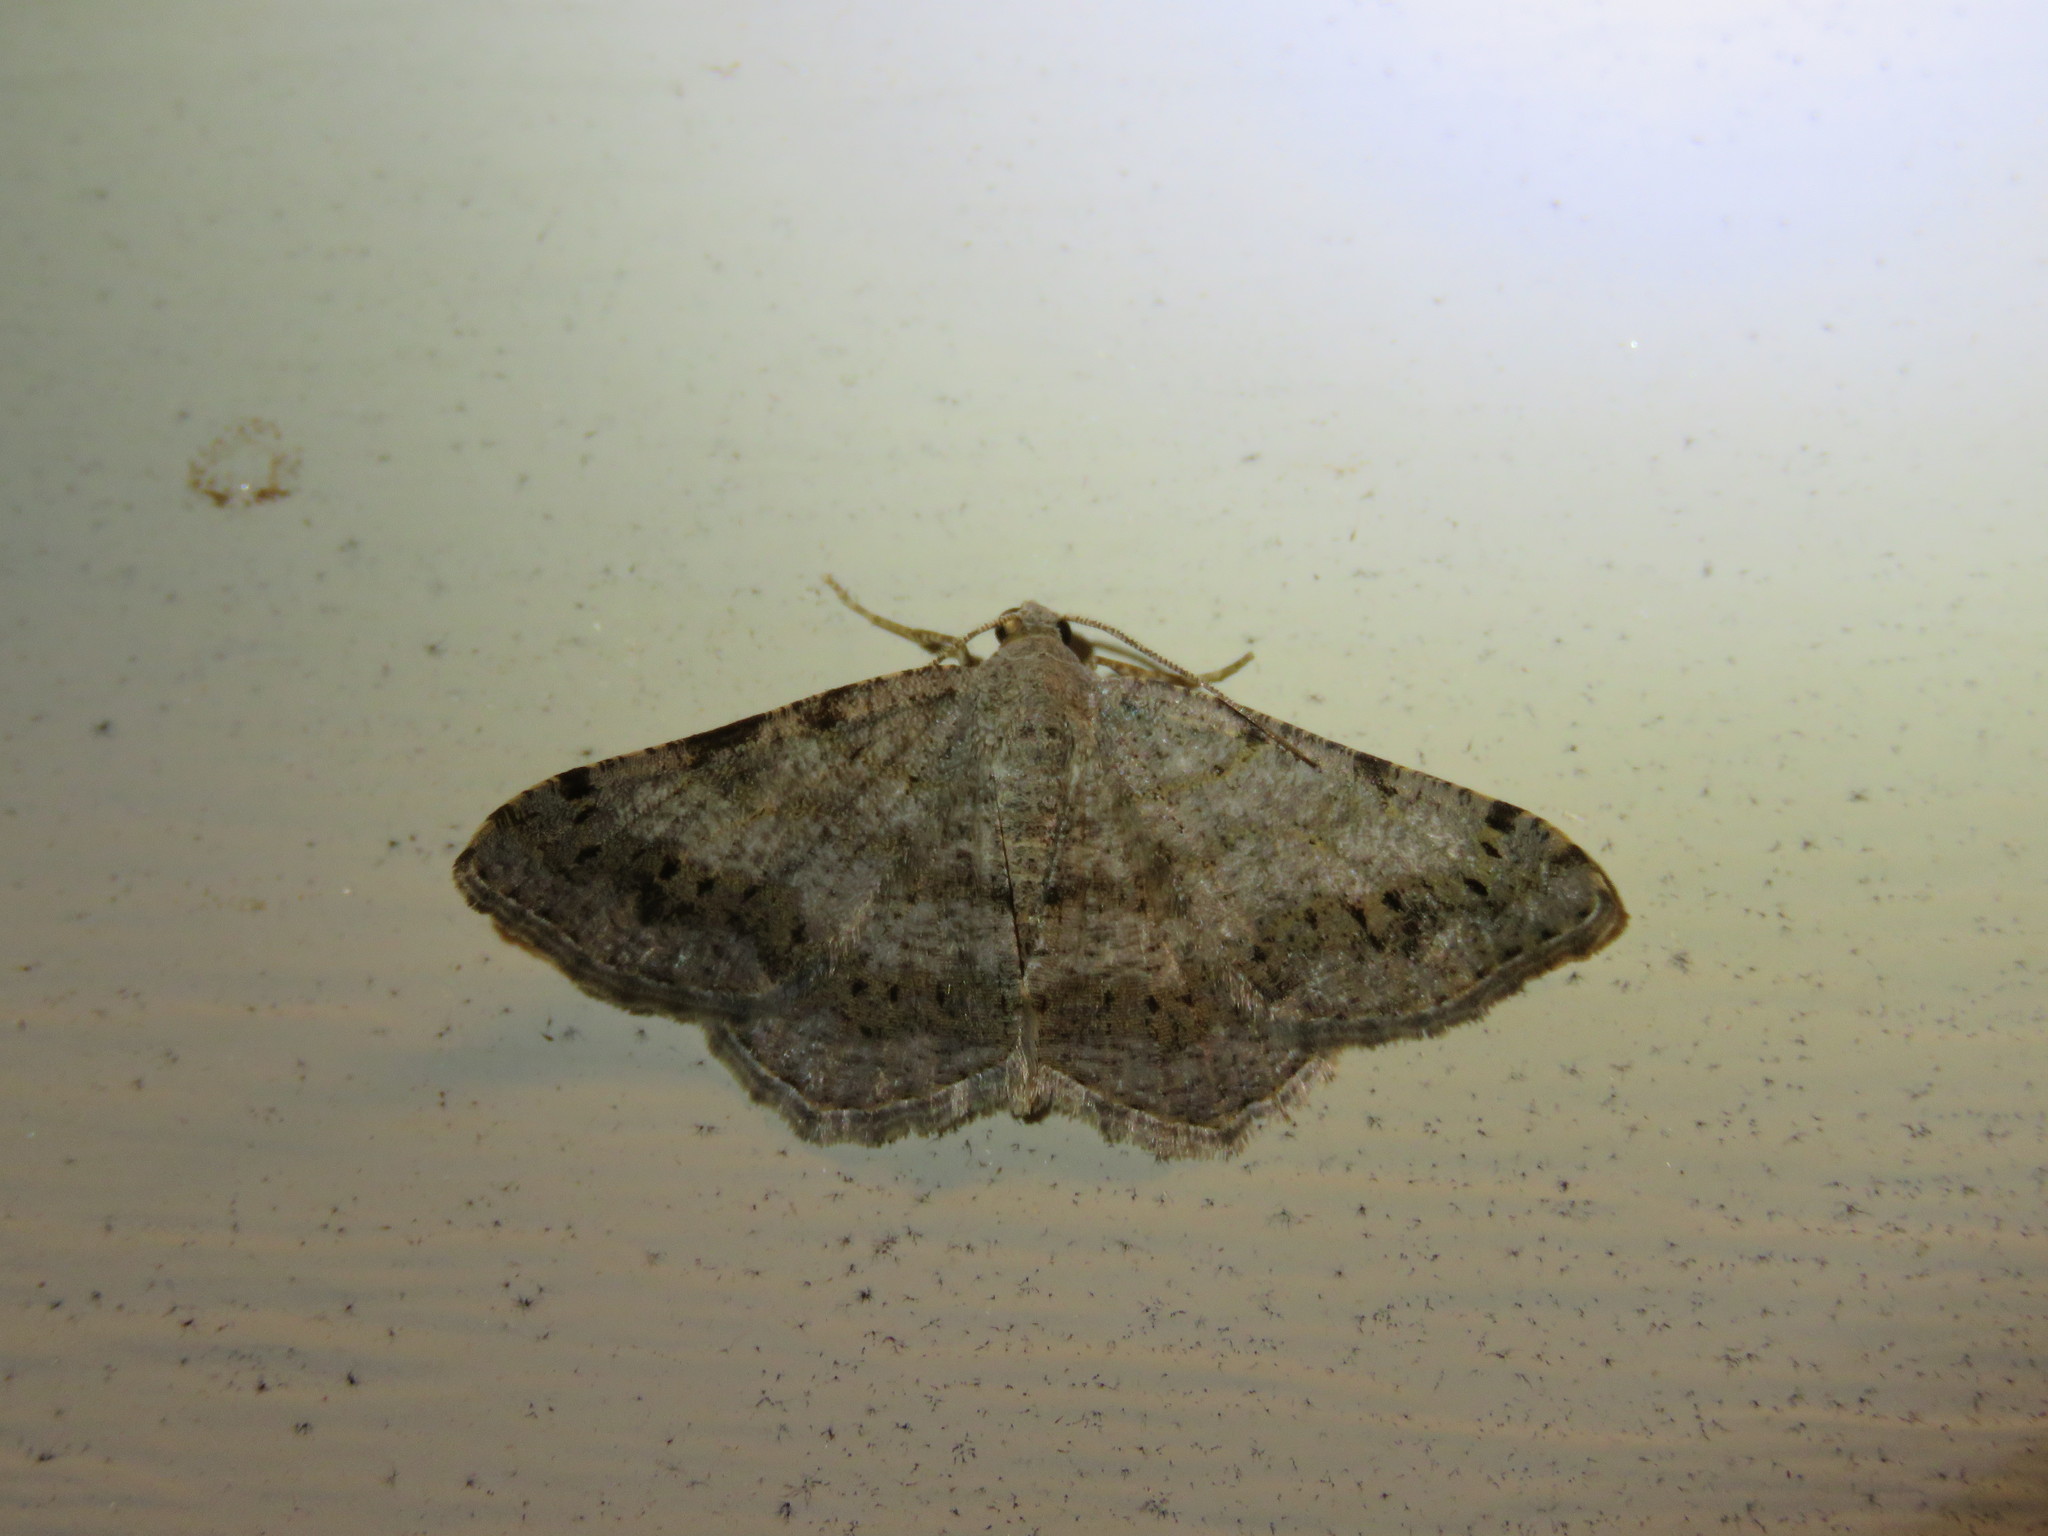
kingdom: Animalia
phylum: Arthropoda
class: Insecta
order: Lepidoptera
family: Geometridae
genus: Digrammia
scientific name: Digrammia ocellinata
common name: Faint-spotted angle
